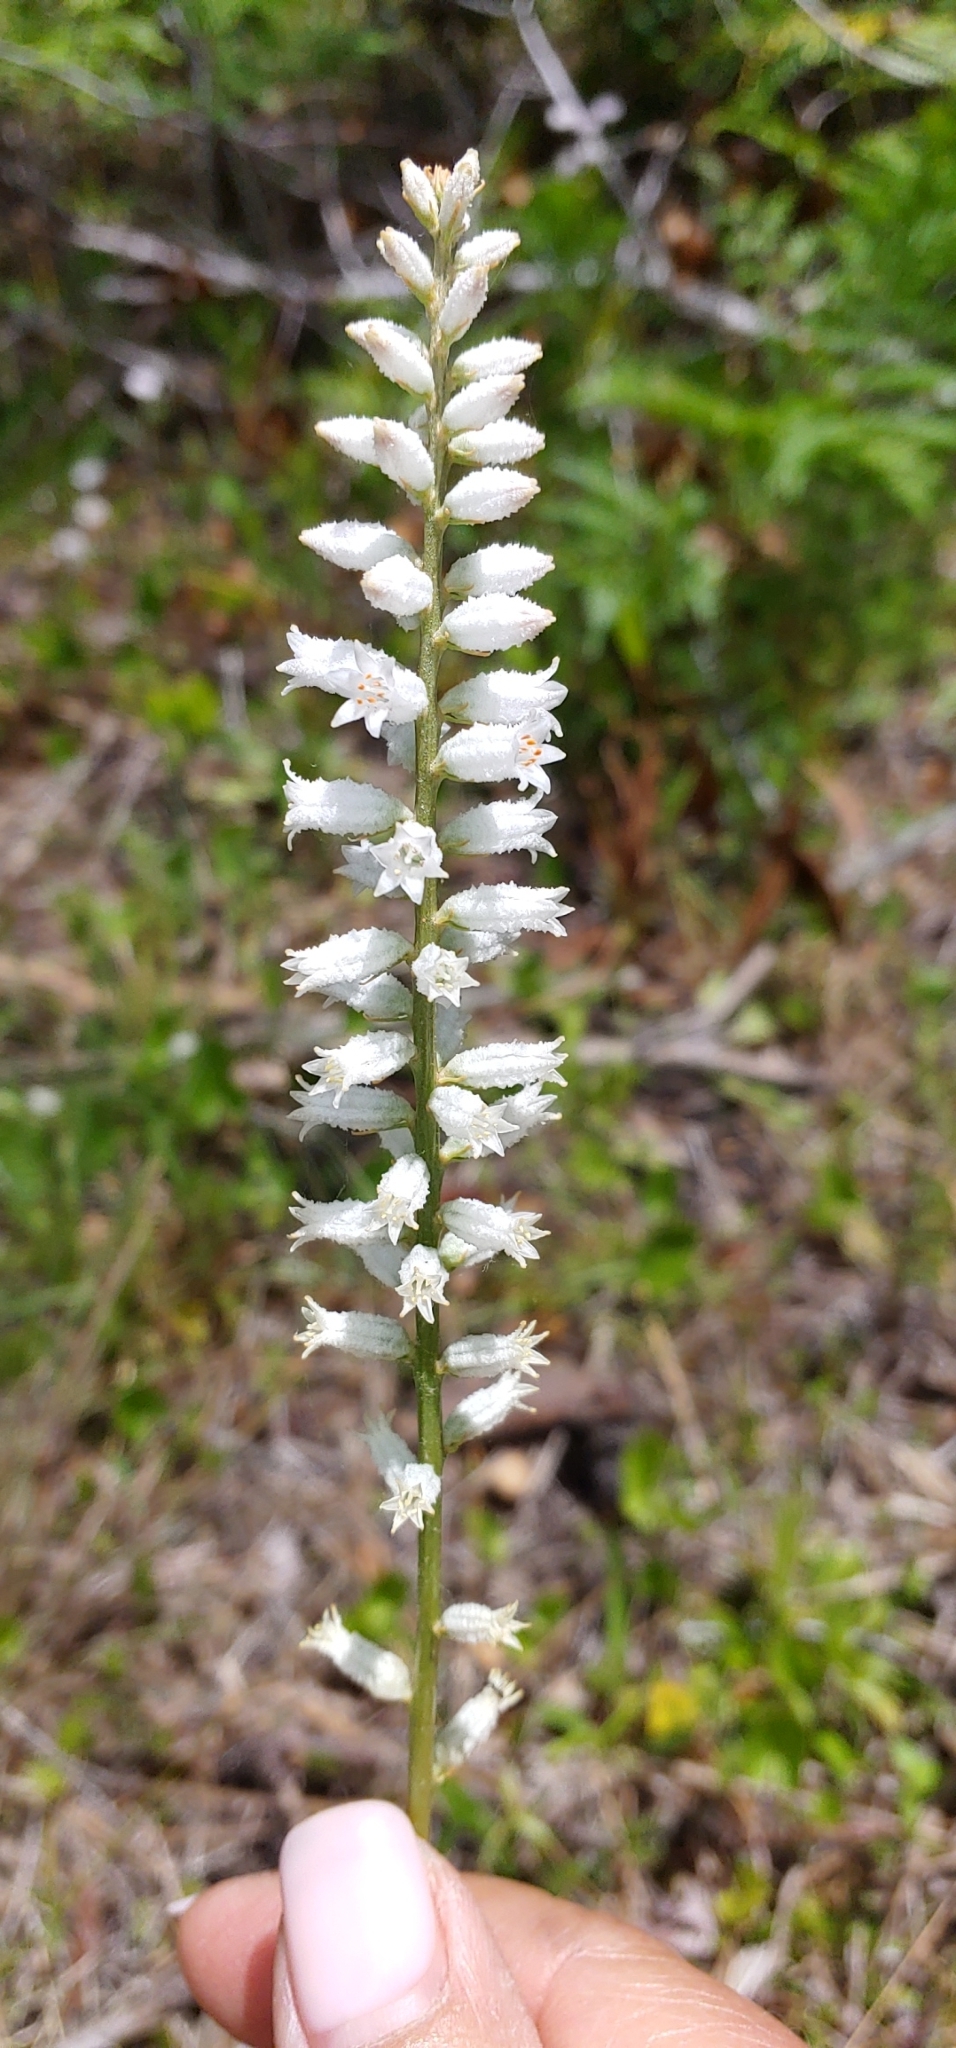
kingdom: Plantae
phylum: Tracheophyta
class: Liliopsida
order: Dioscoreales
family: Nartheciaceae
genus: Aletris
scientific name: Aletris farinosa
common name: Colicroot
